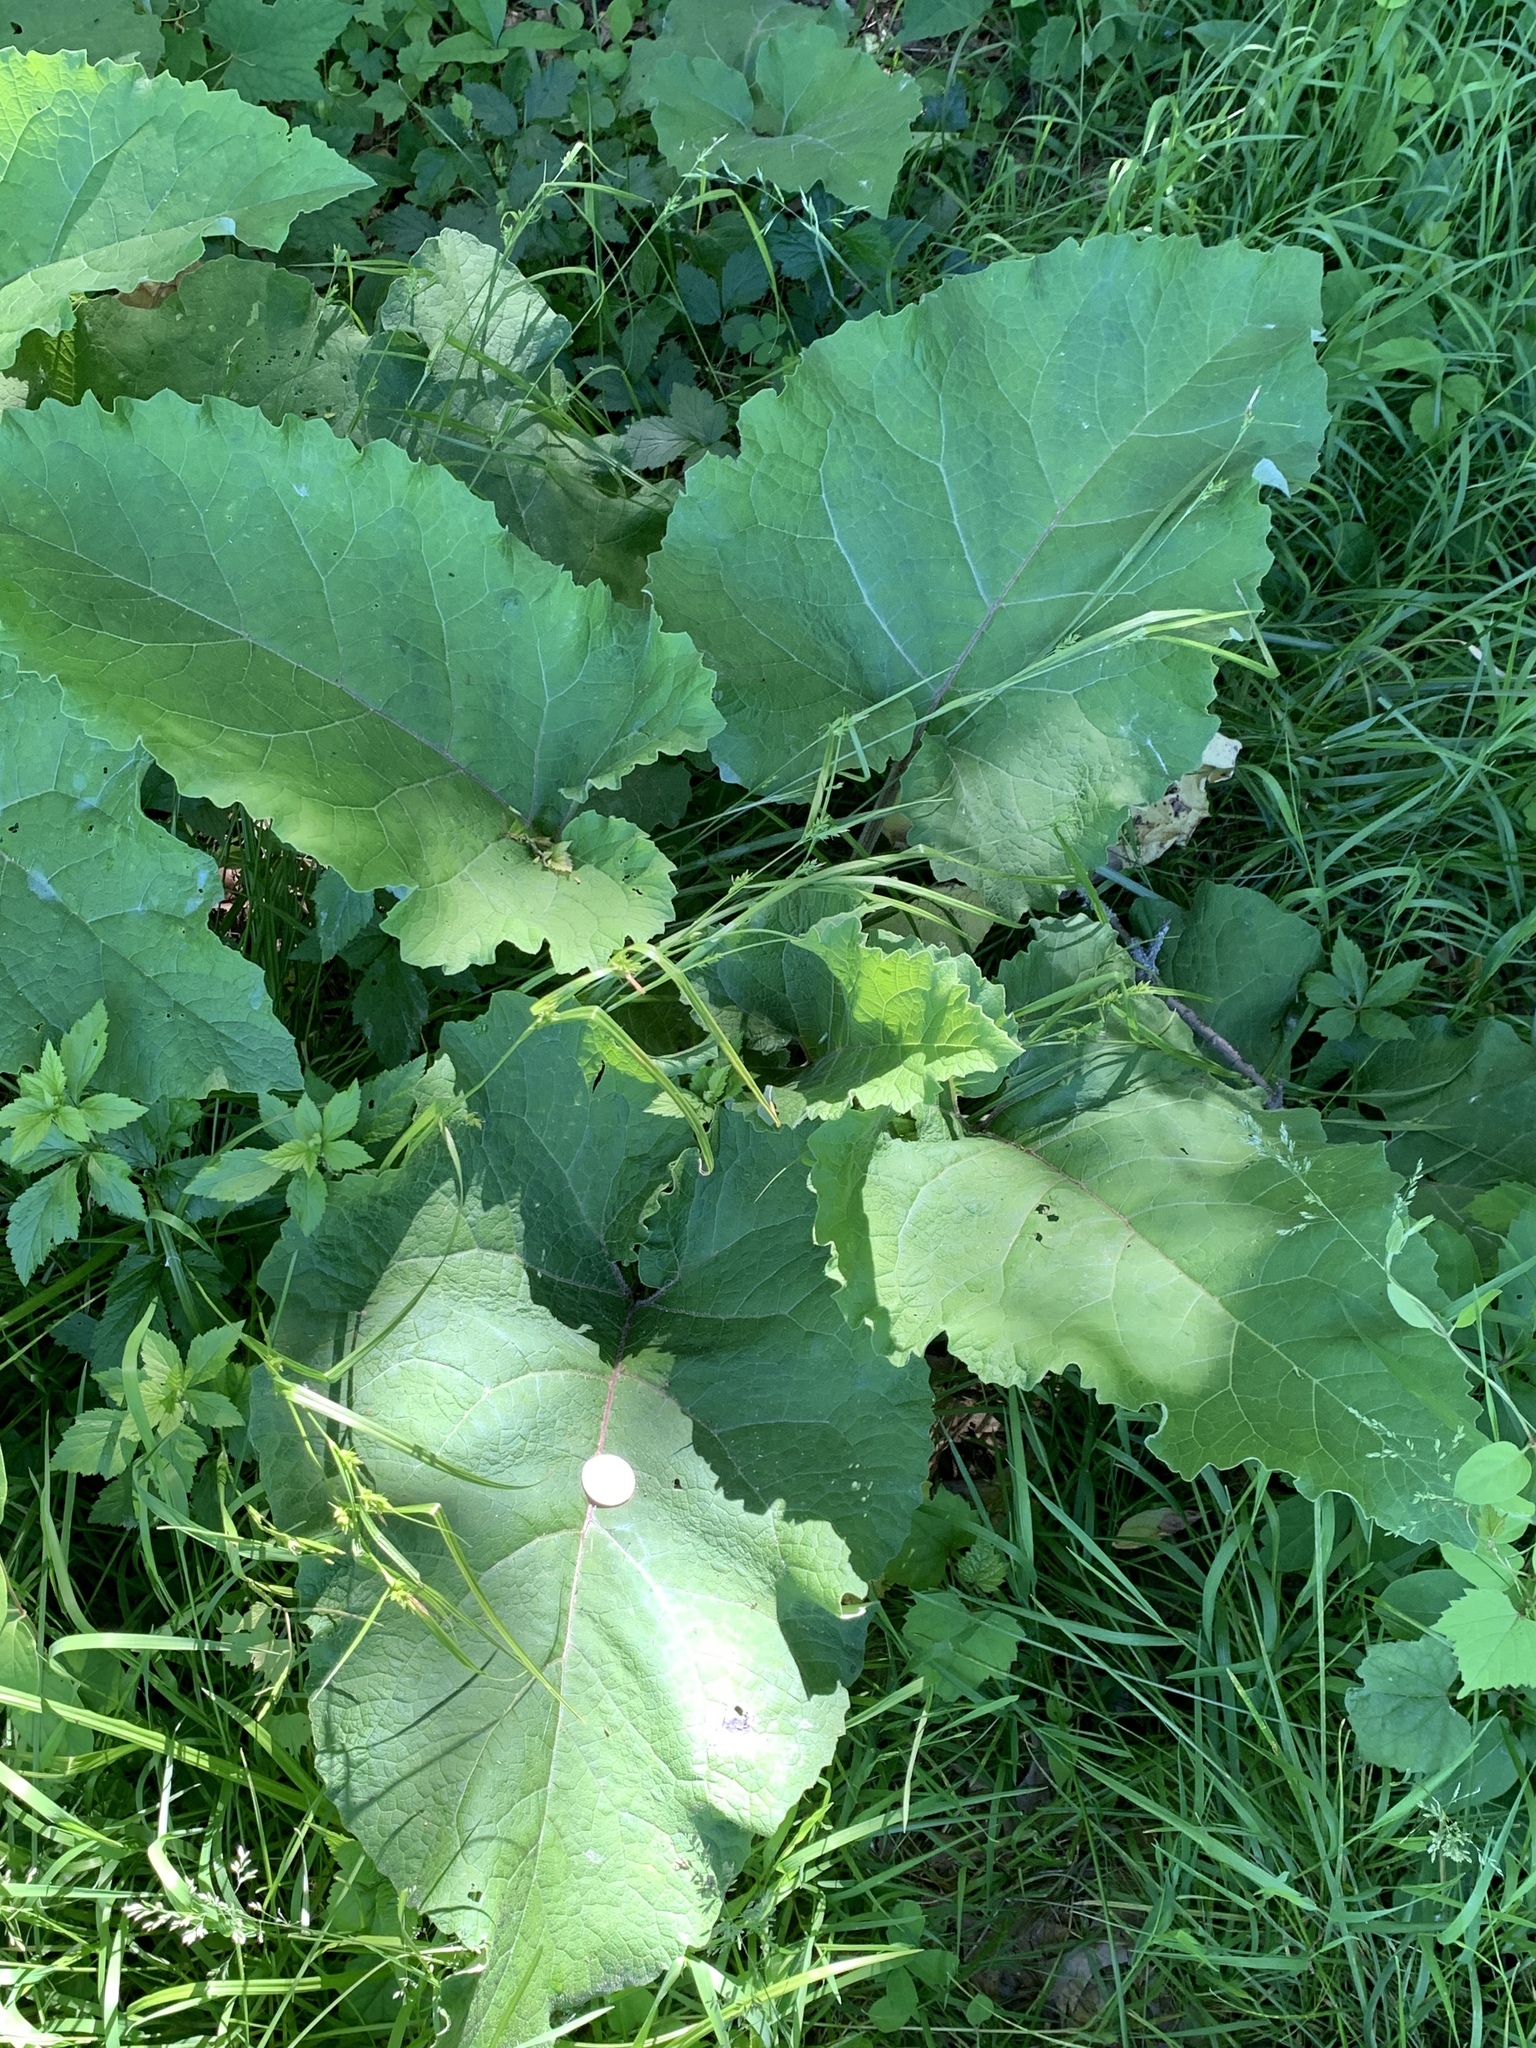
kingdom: Plantae
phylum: Tracheophyta
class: Magnoliopsida
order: Asterales
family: Asteraceae
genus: Arctium
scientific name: Arctium
